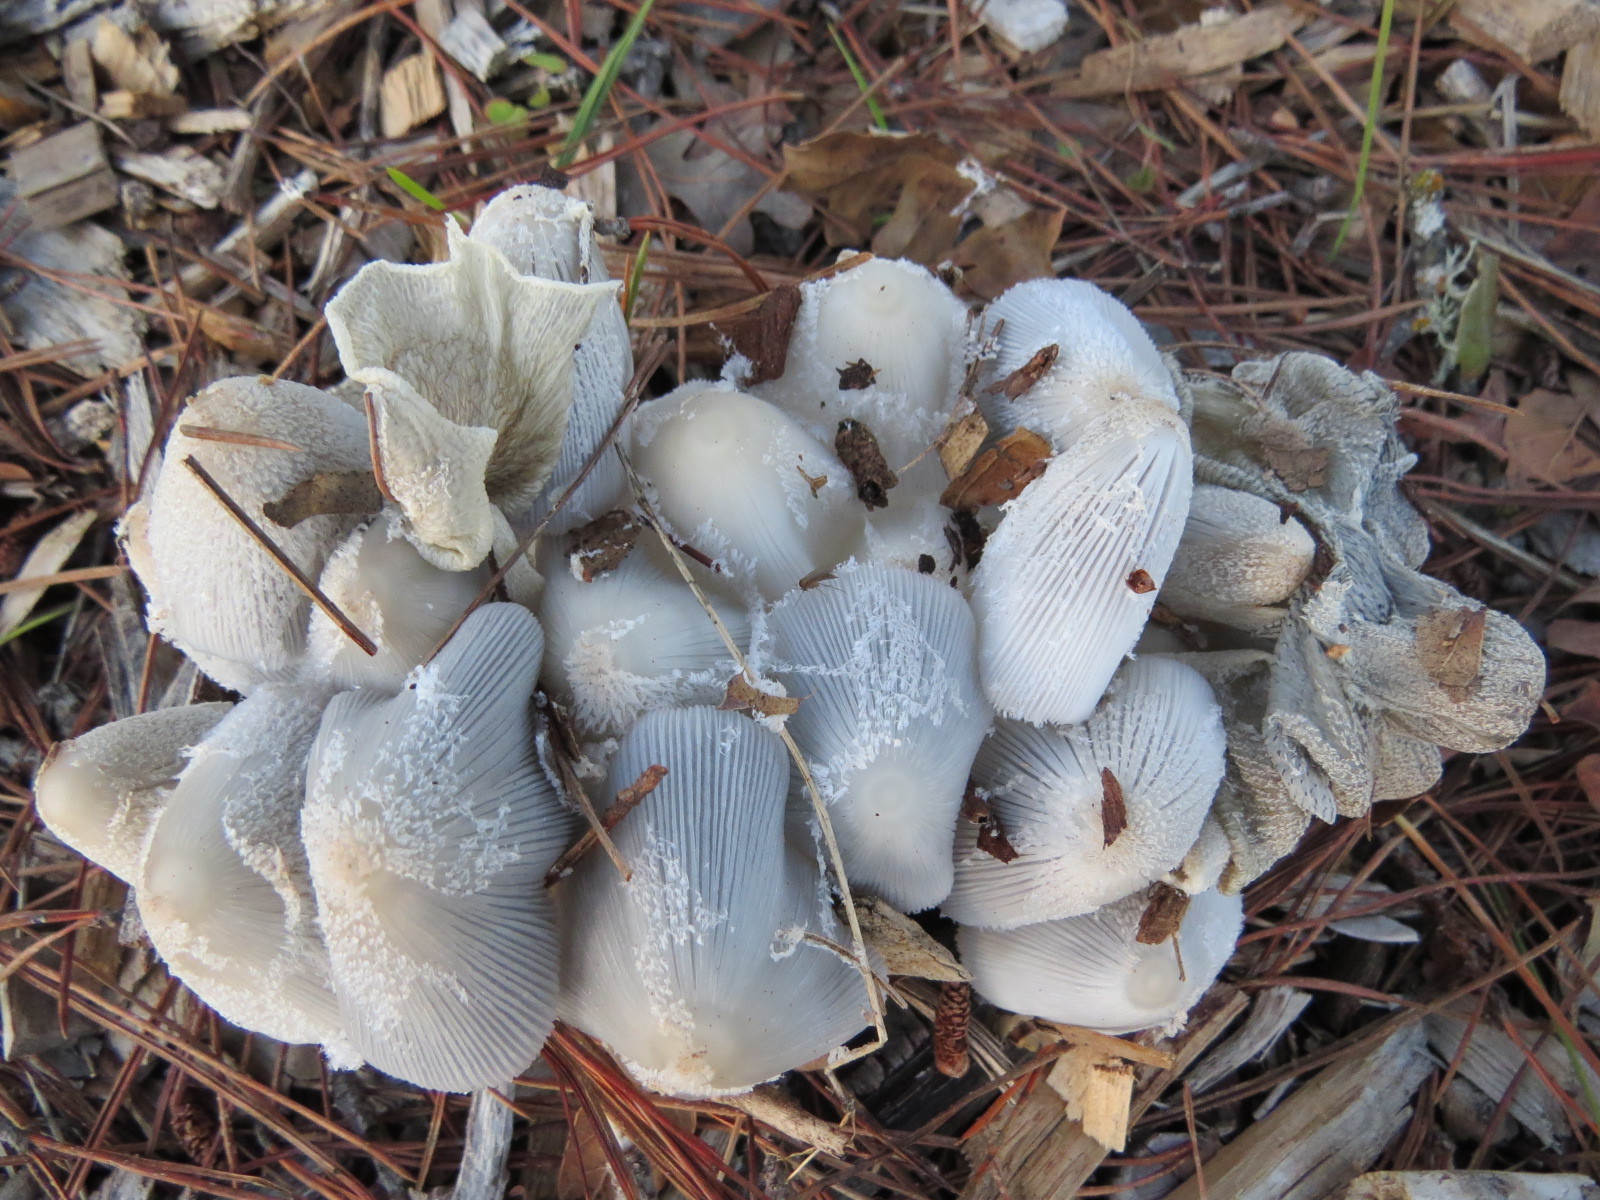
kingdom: Fungi
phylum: Basidiomycota
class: Agaricomycetes
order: Agaricales
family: Psathyrellaceae
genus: Coprinopsis
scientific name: Coprinopsis lagopus
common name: Hare'sfoot inkcap
